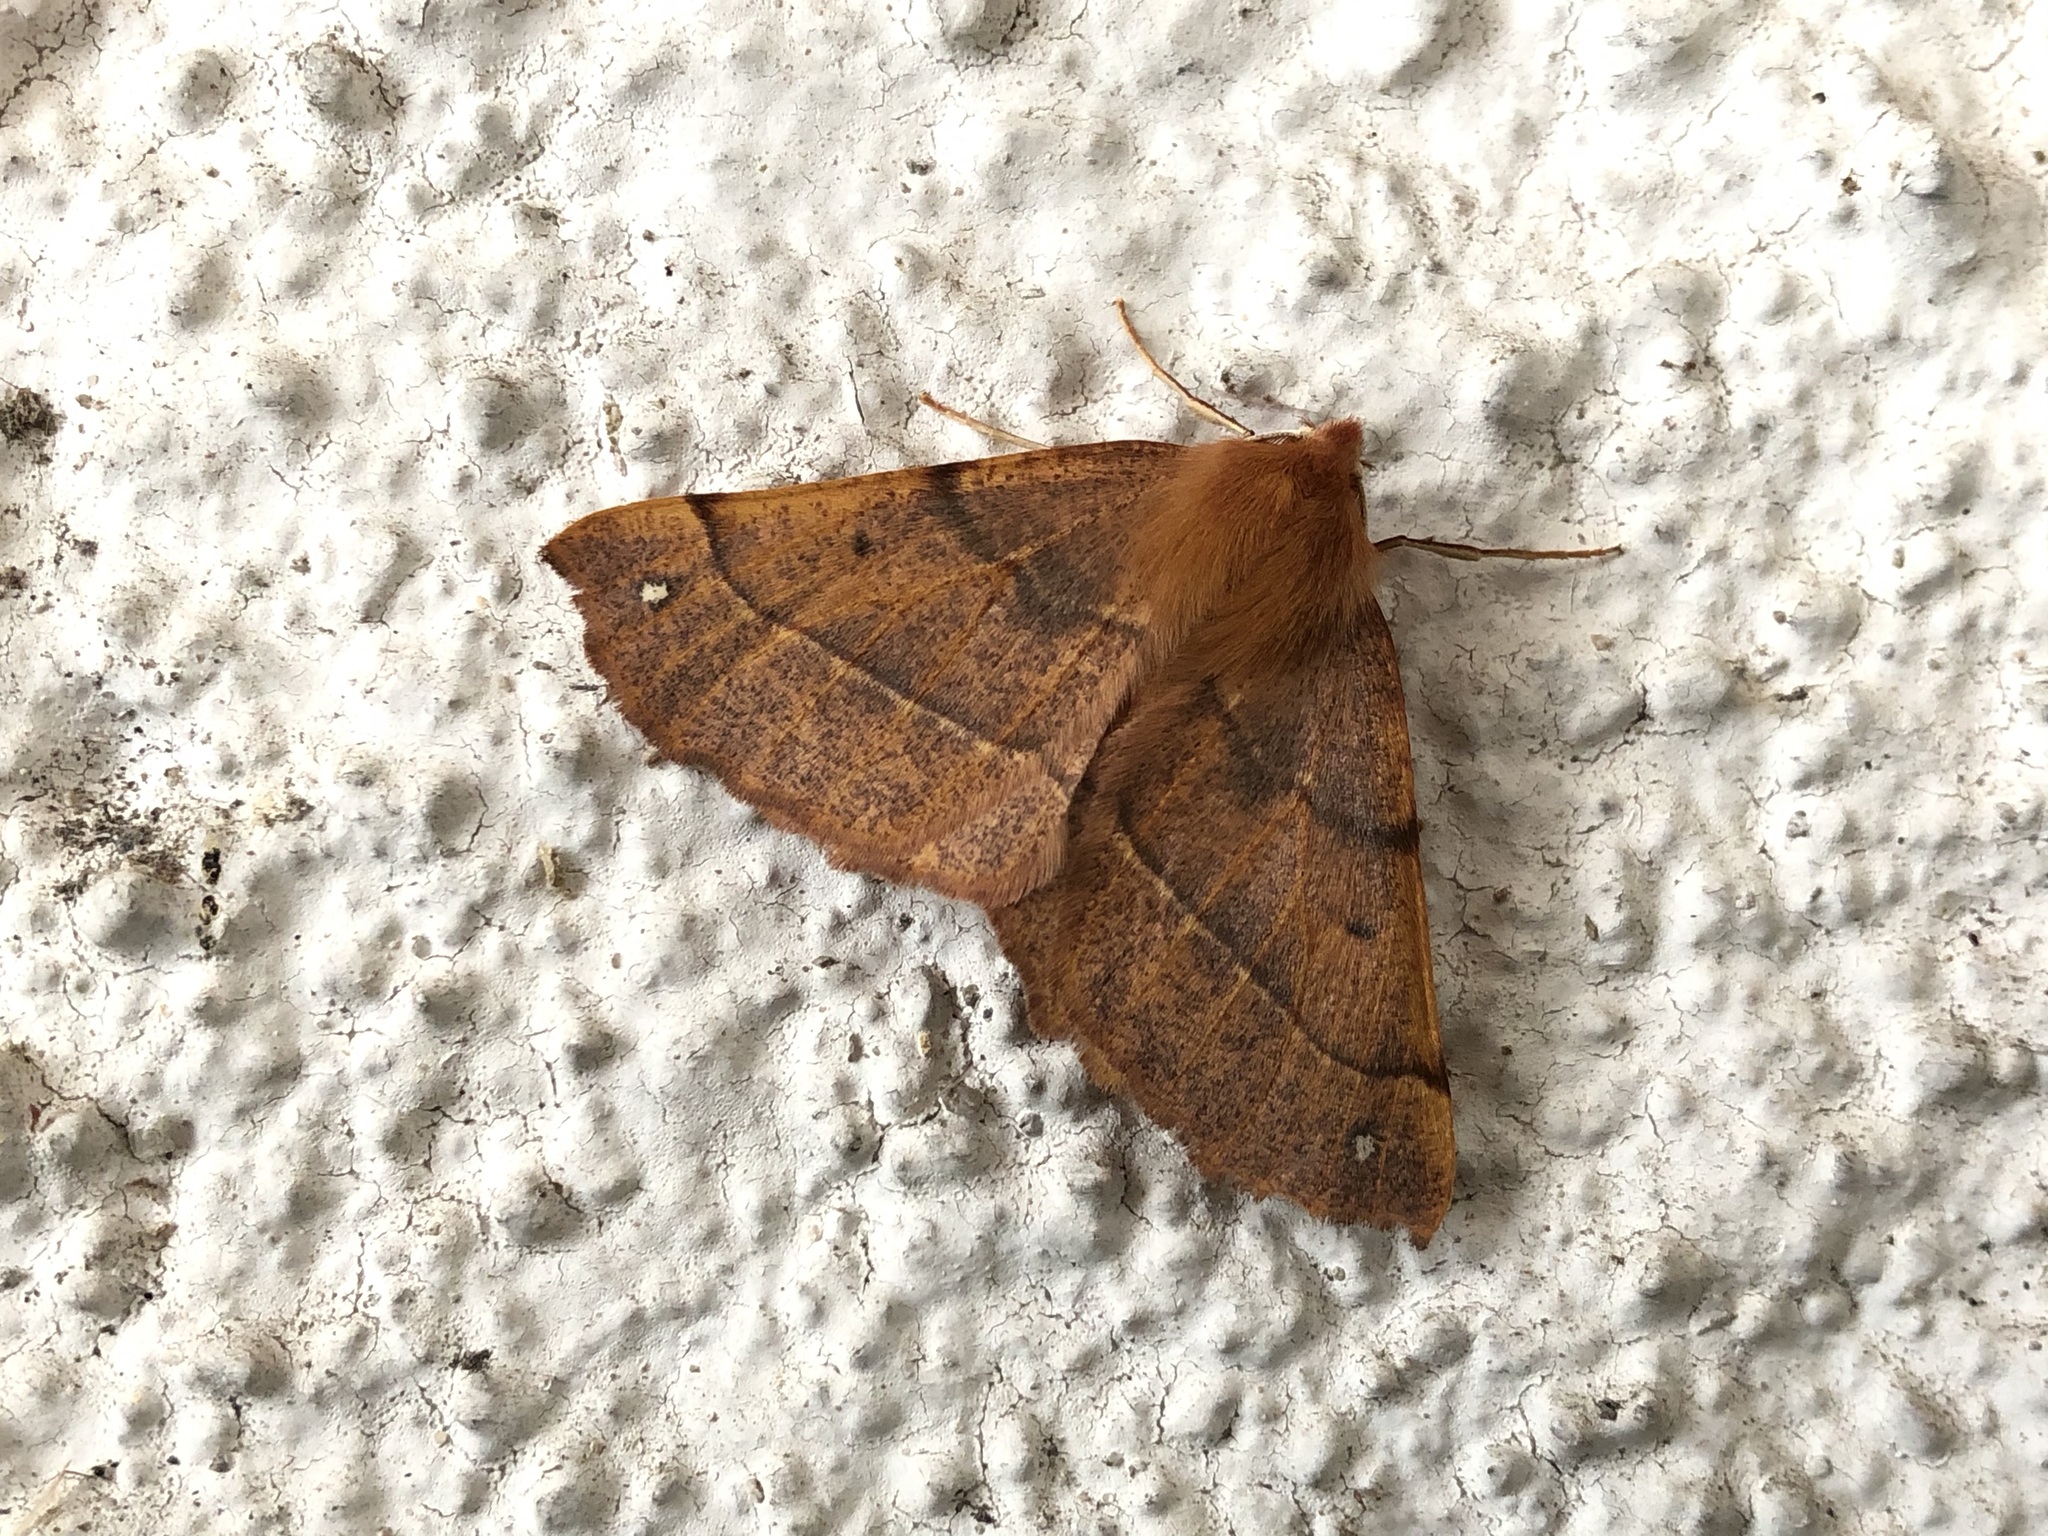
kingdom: Animalia
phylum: Arthropoda
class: Insecta
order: Lepidoptera
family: Geometridae
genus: Colotois
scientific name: Colotois pennaria
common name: Feathered thorn
